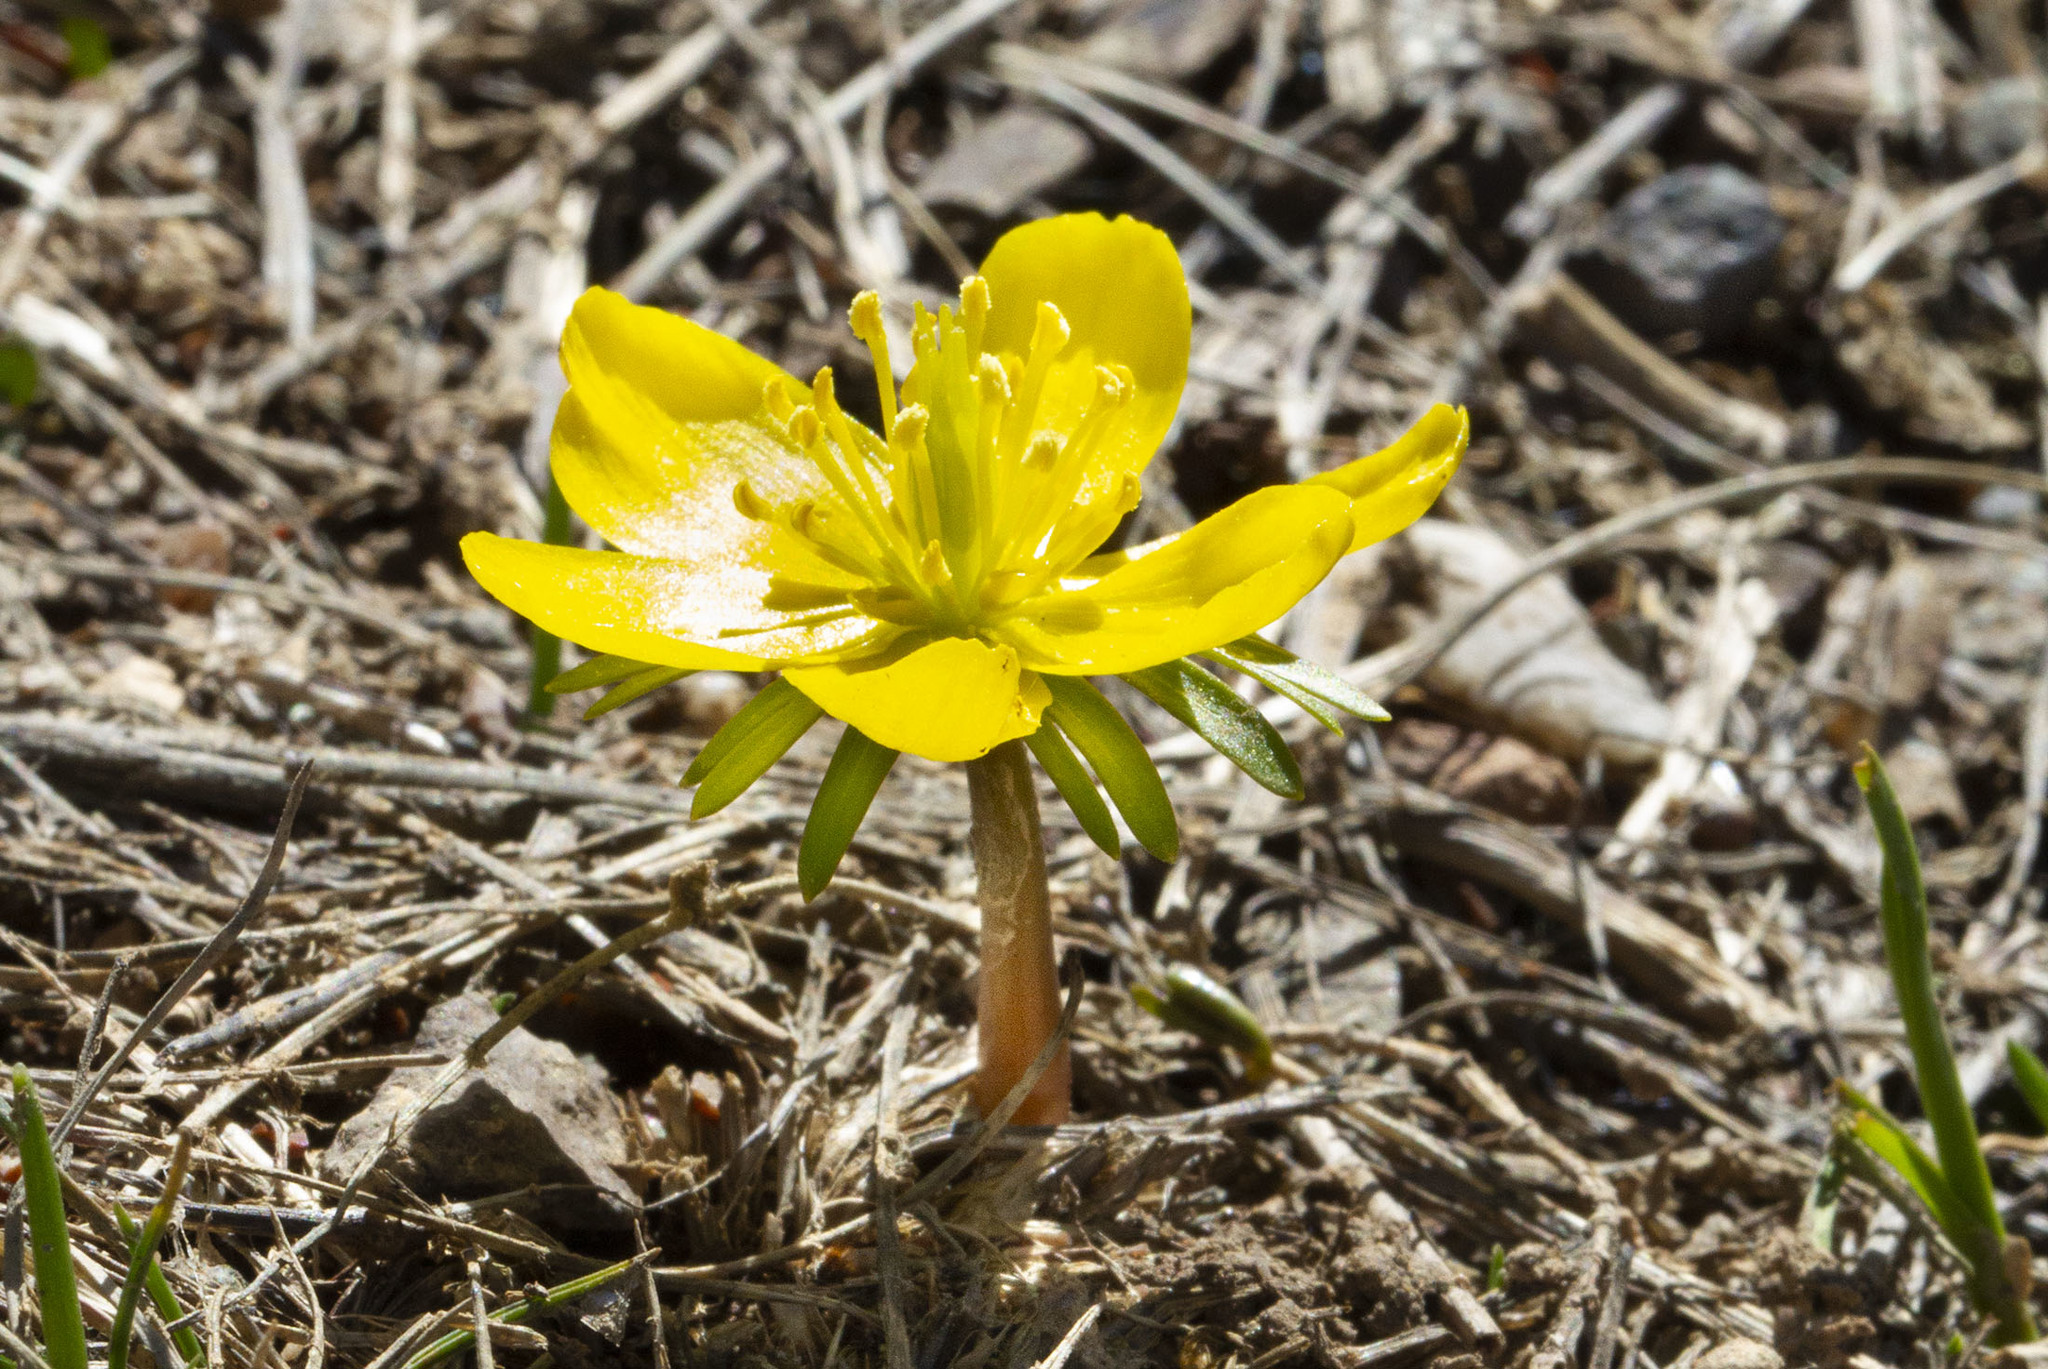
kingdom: Plantae
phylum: Tracheophyta
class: Magnoliopsida
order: Ranunculales
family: Ranunculaceae
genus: Eranthis
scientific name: Eranthis cilicica
